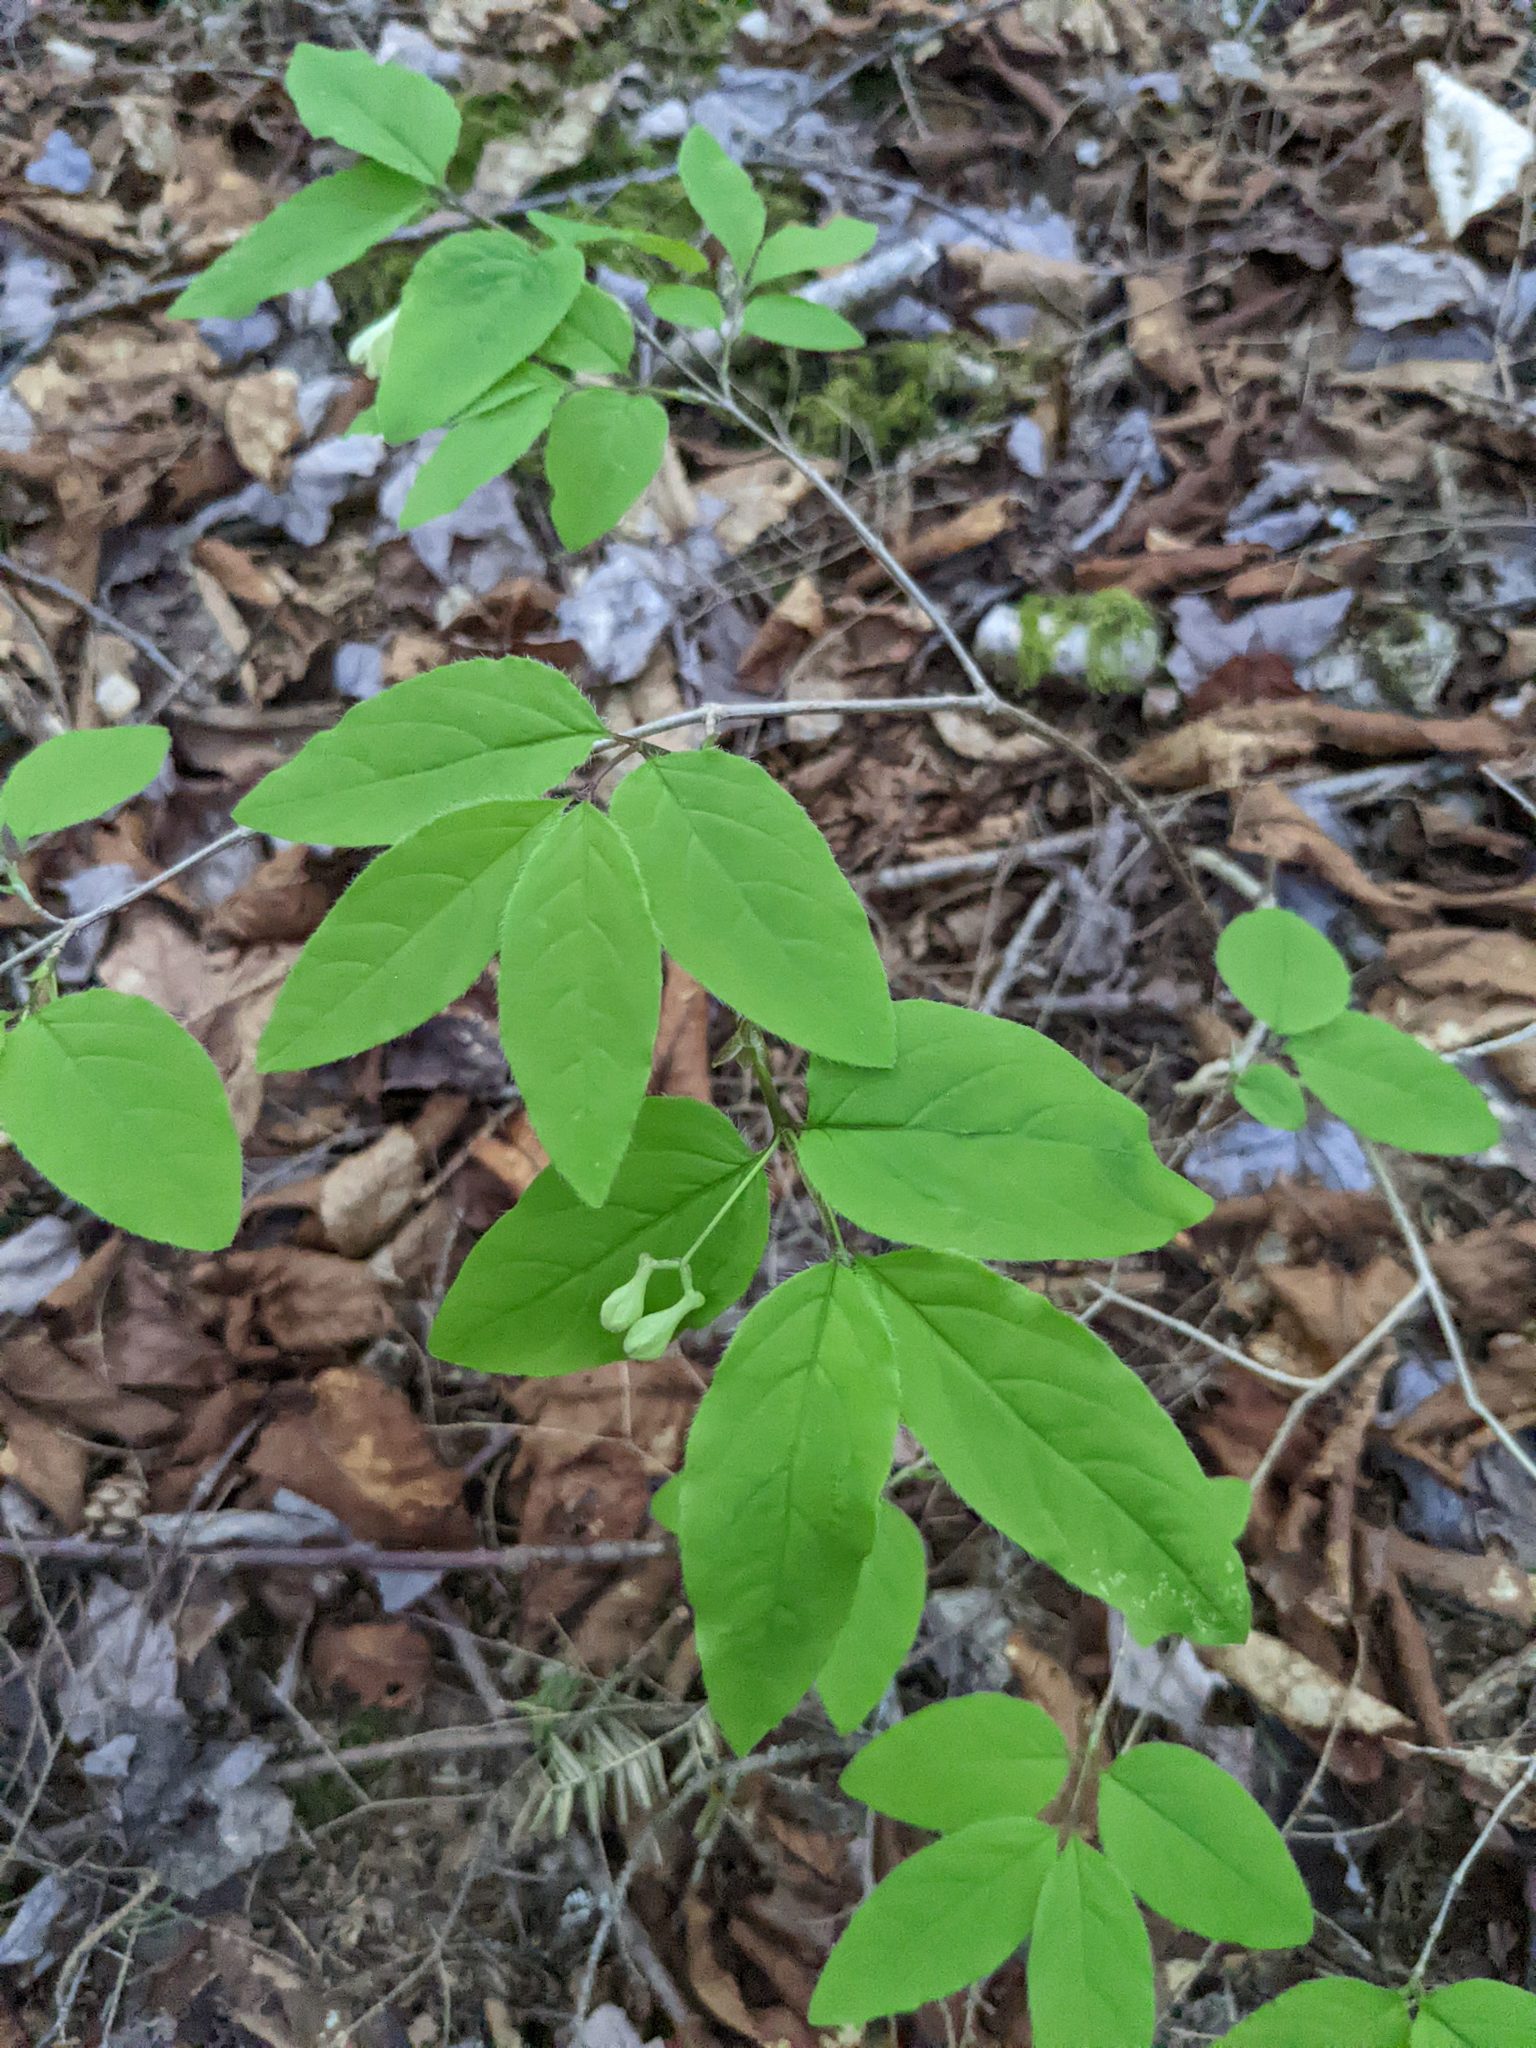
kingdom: Plantae
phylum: Tracheophyta
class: Magnoliopsida
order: Dipsacales
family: Caprifoliaceae
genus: Lonicera
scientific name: Lonicera canadensis
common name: American fly-honeysuckle
